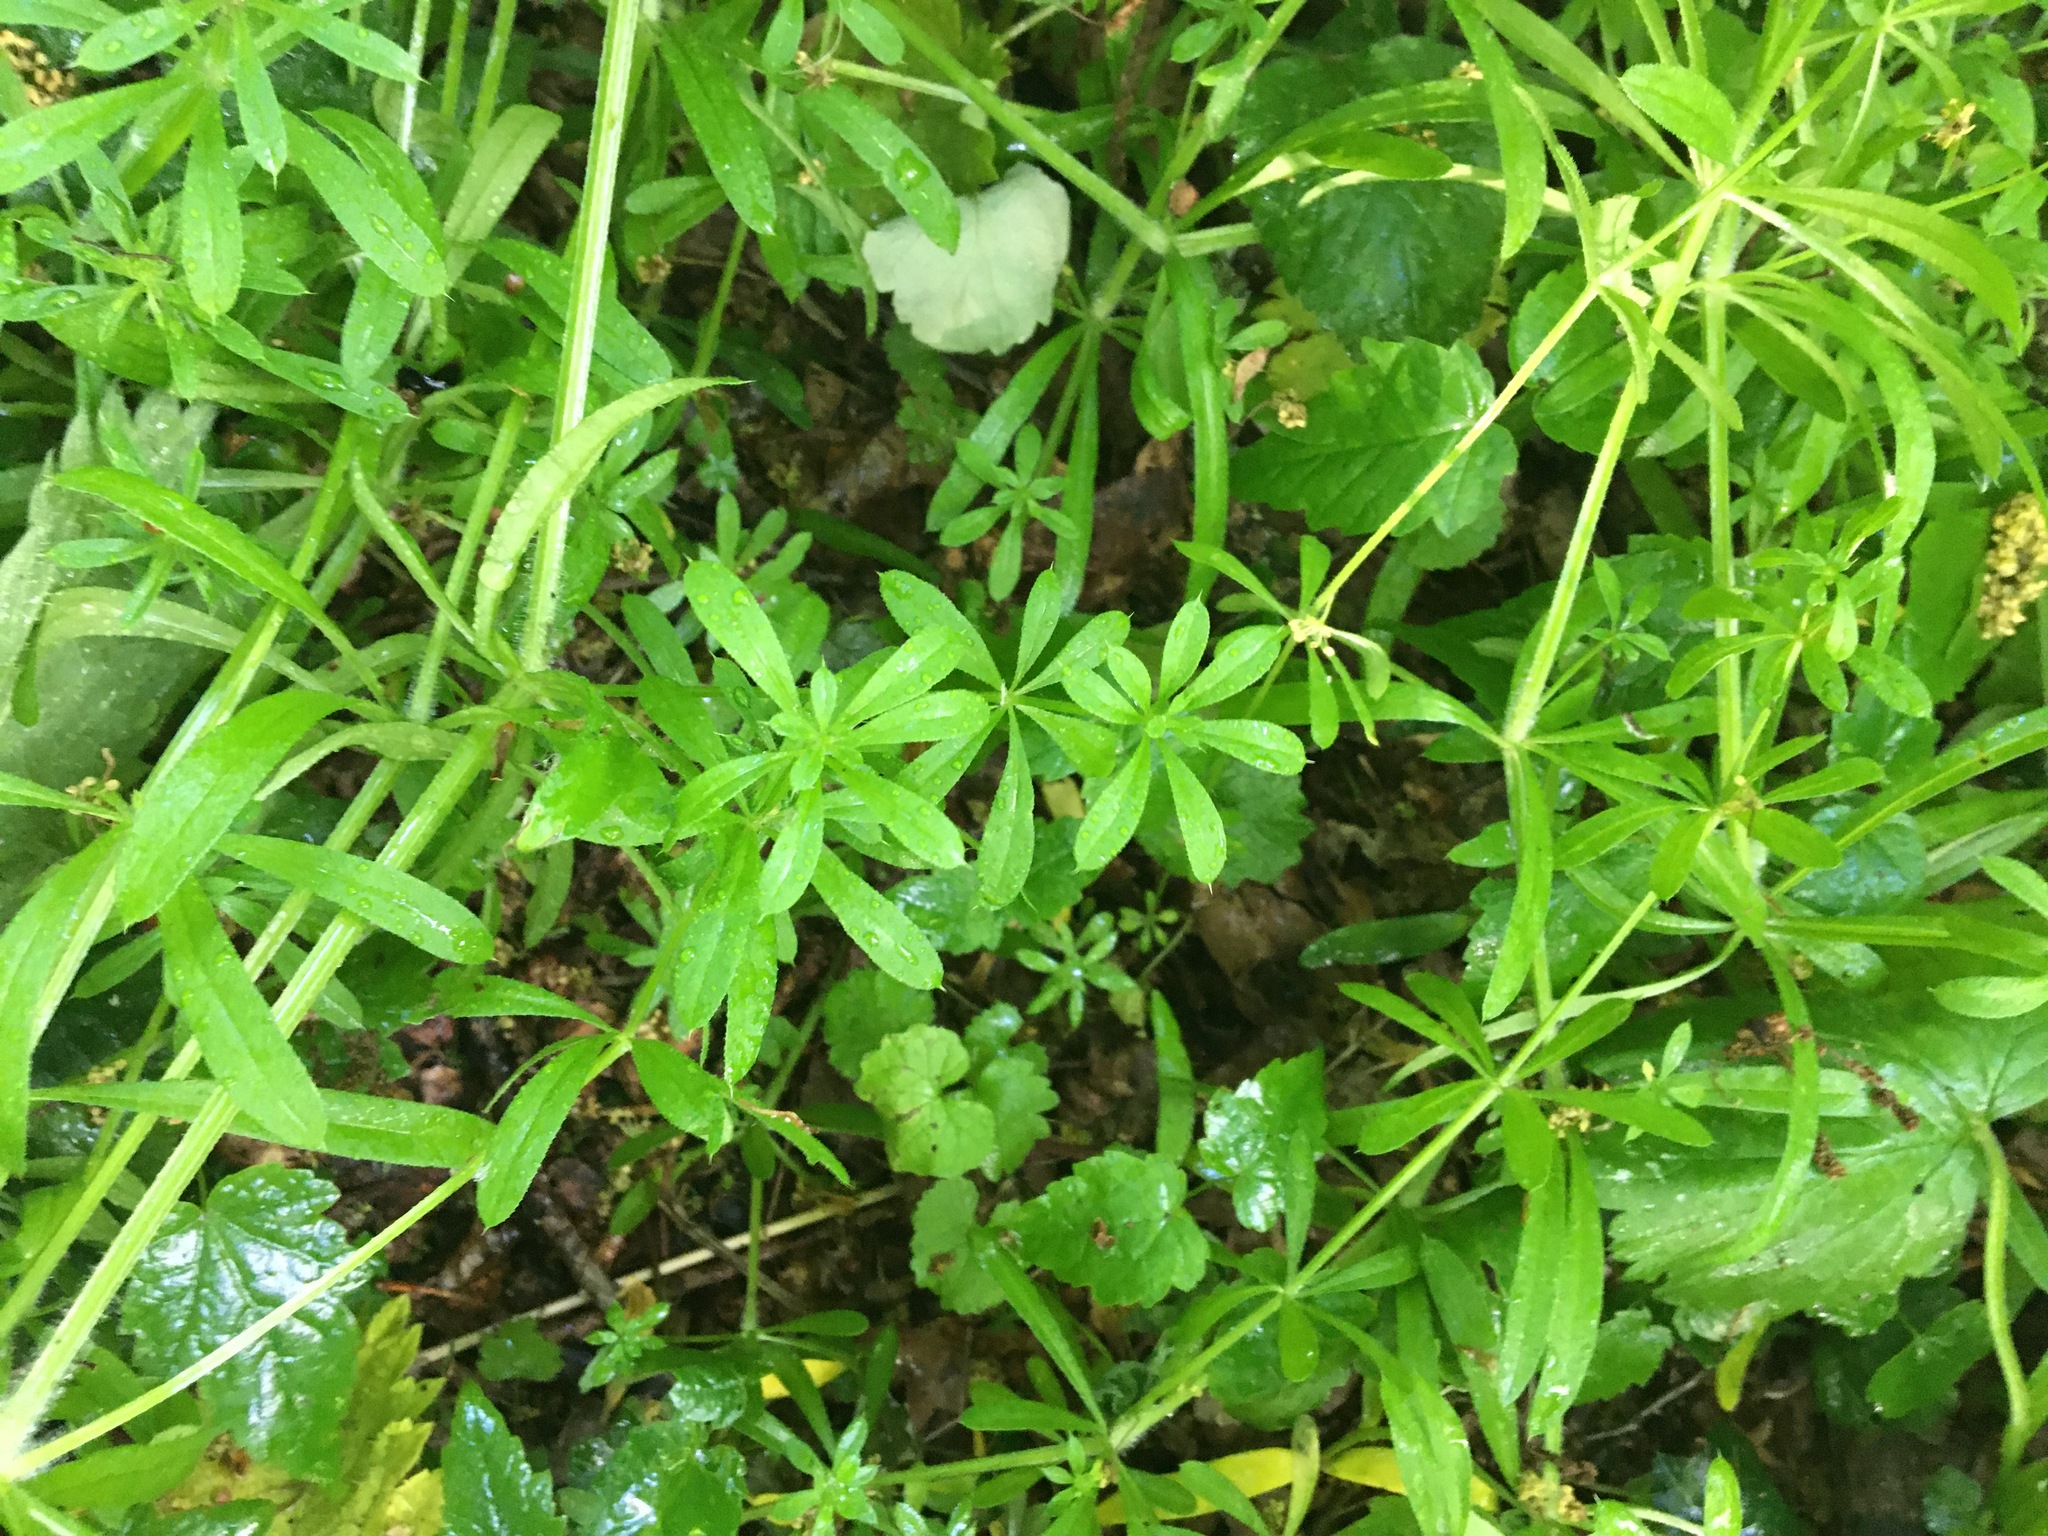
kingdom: Plantae
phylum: Tracheophyta
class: Magnoliopsida
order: Gentianales
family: Rubiaceae
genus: Galium
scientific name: Galium aparine
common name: Cleavers
